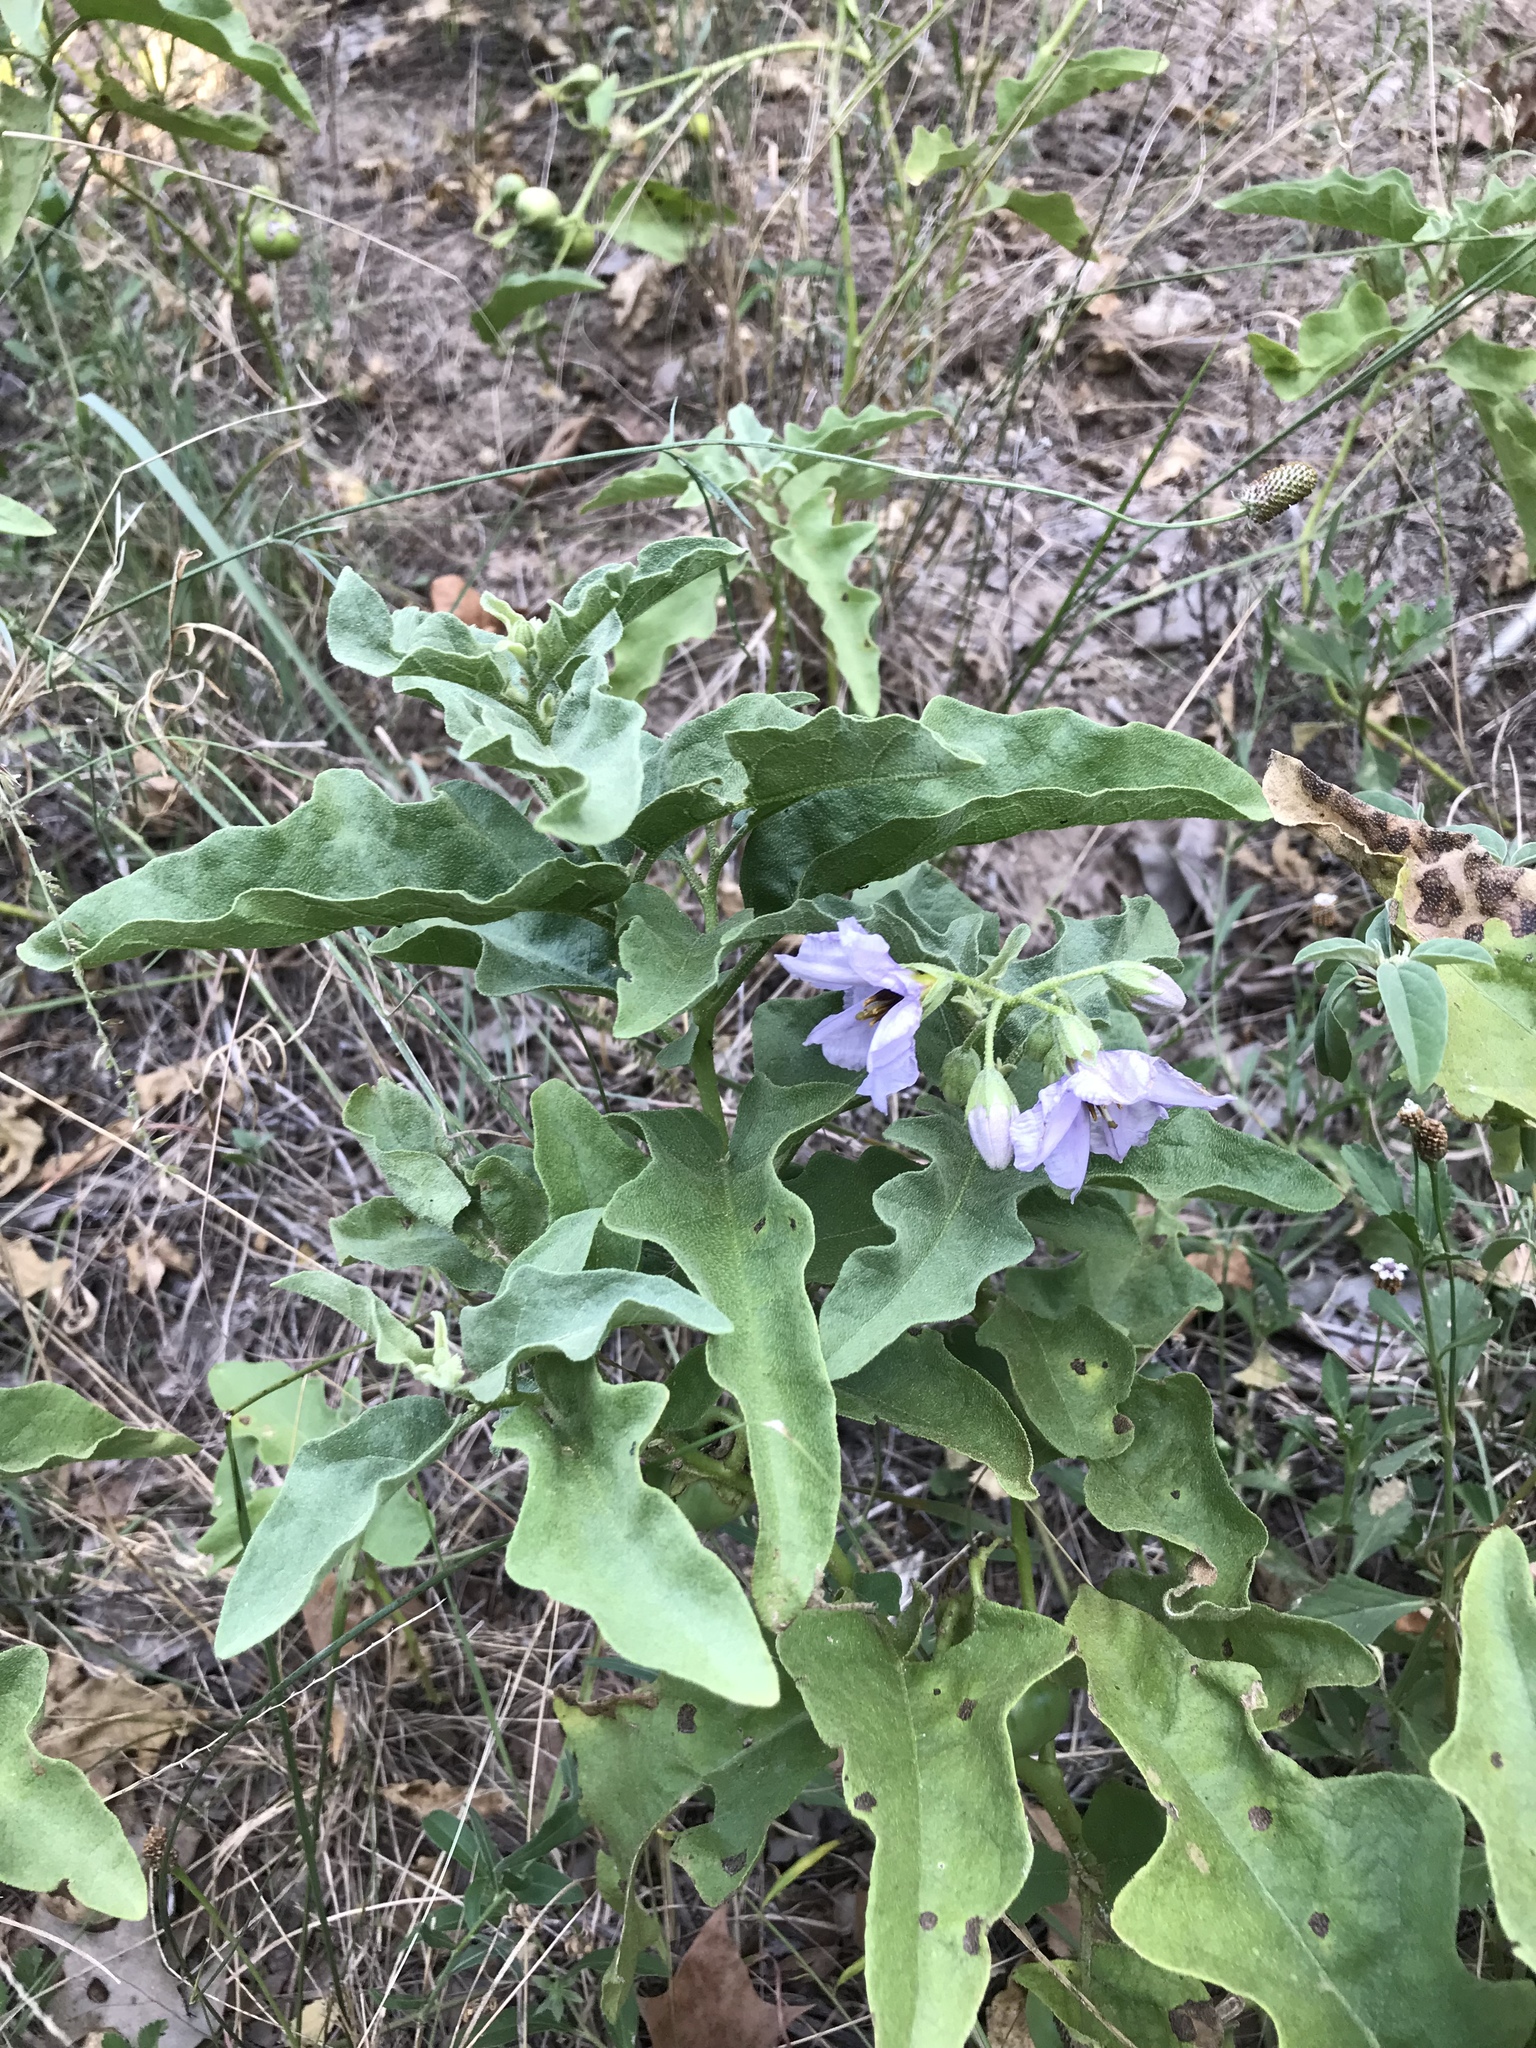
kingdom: Plantae
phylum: Tracheophyta
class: Magnoliopsida
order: Solanales
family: Solanaceae
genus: Solanum
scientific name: Solanum dimidiatum
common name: Carolina horse-nettle
